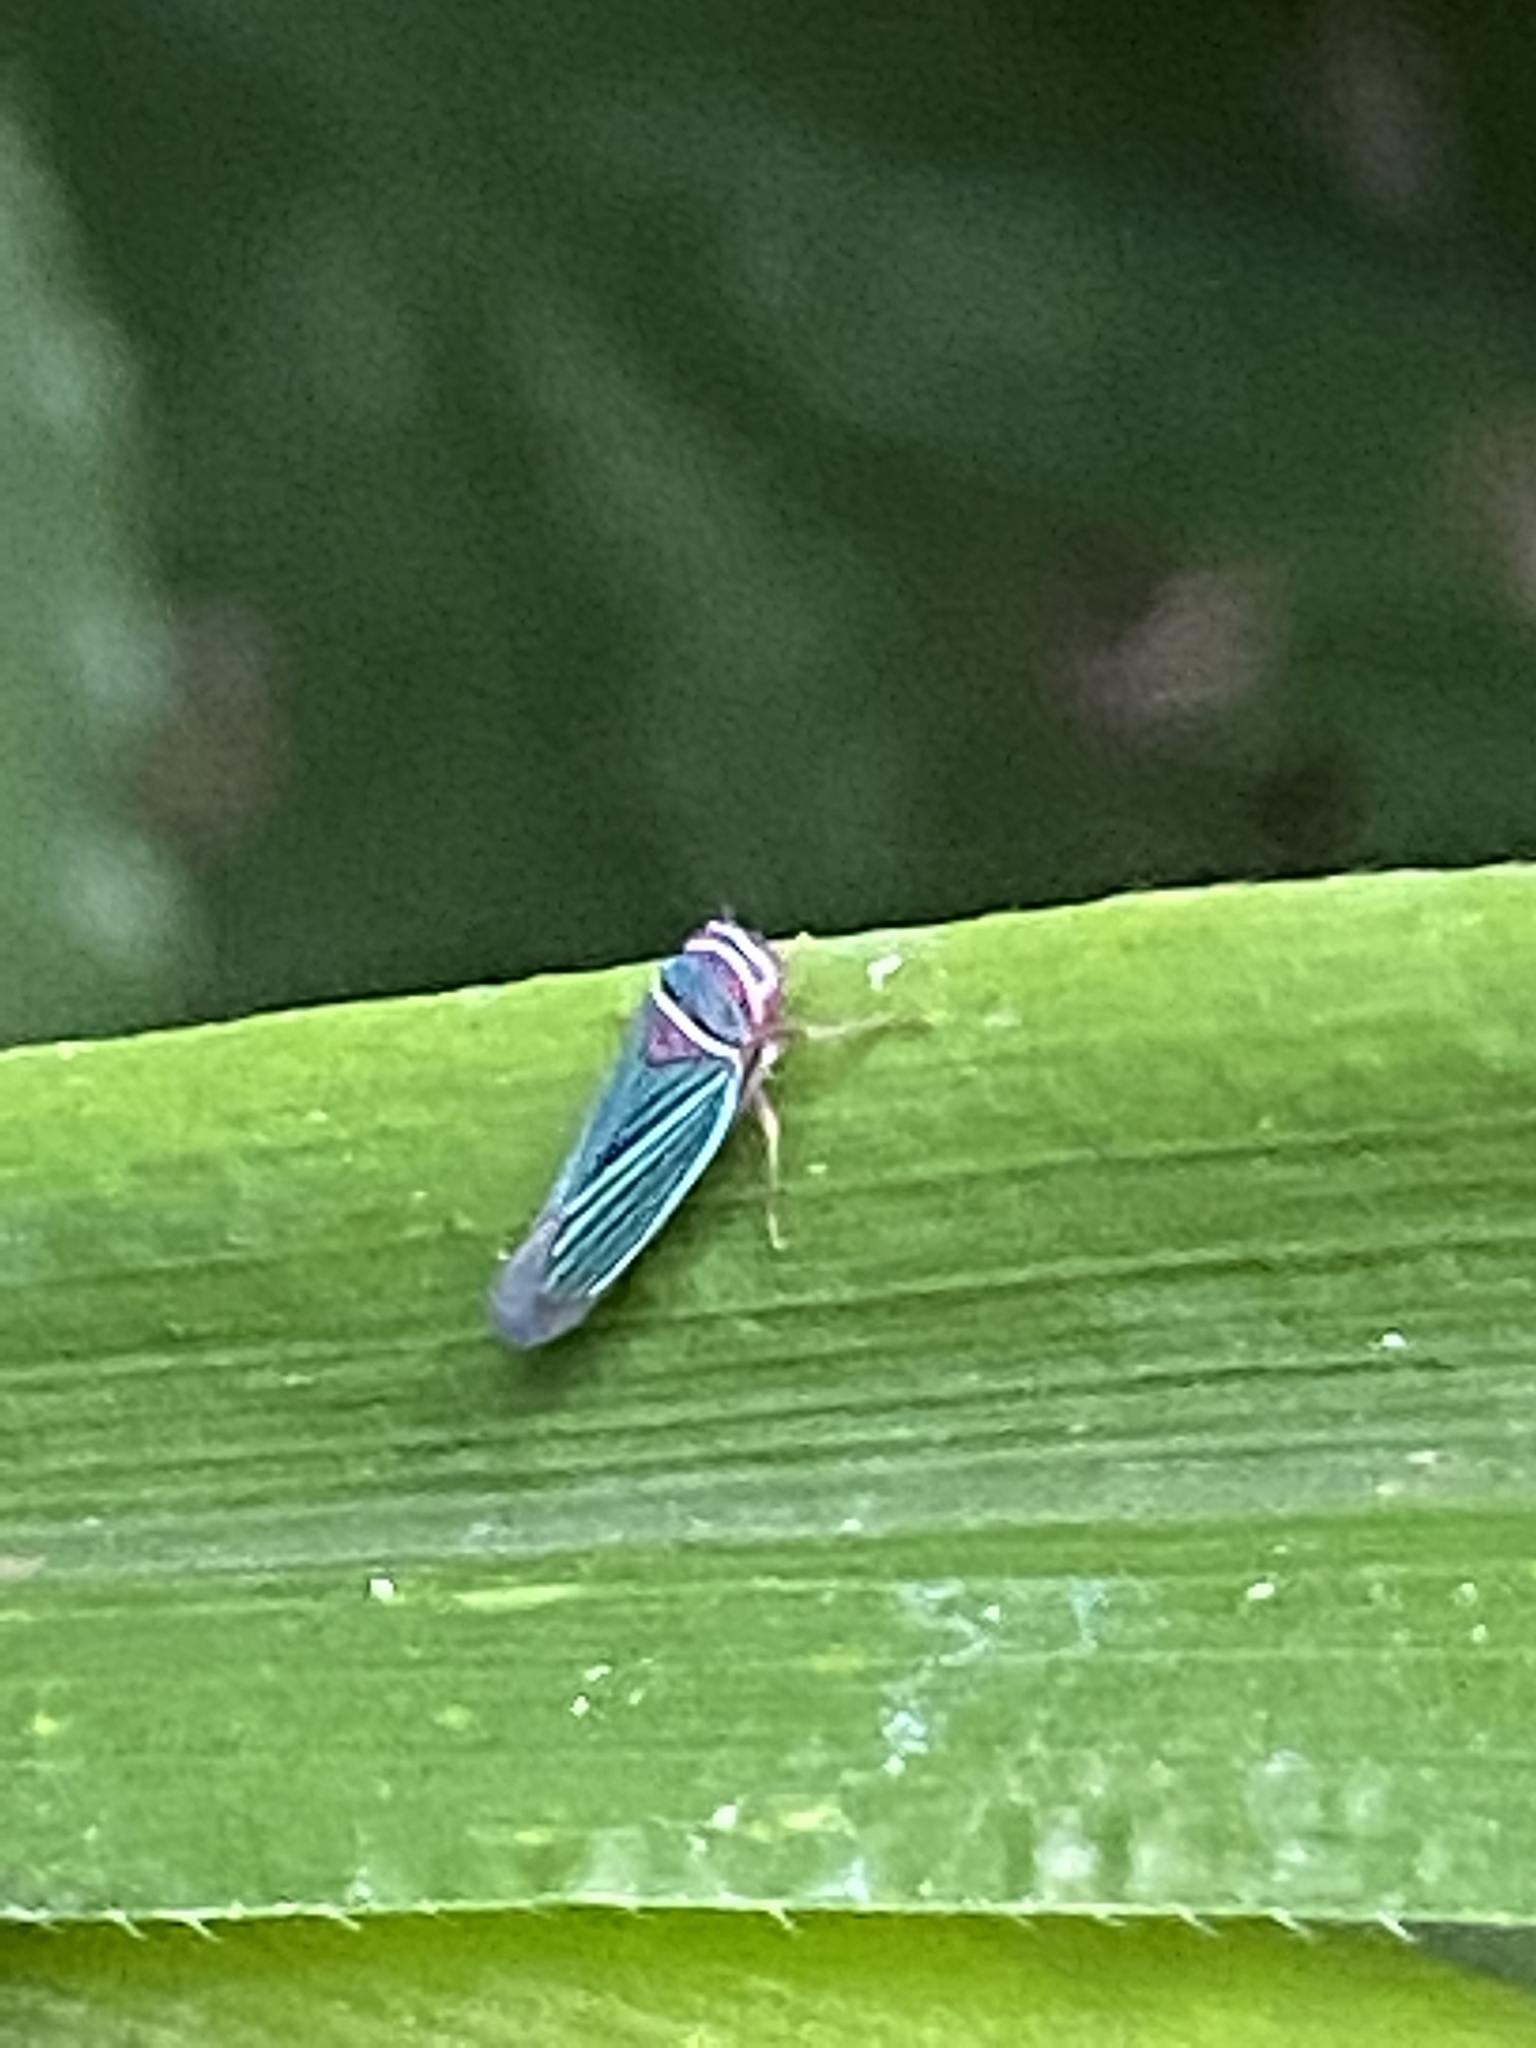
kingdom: Animalia
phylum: Arthropoda
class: Insecta
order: Hemiptera
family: Cicadellidae
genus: Tylozygus
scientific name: Tylozygus fuscolineellus
